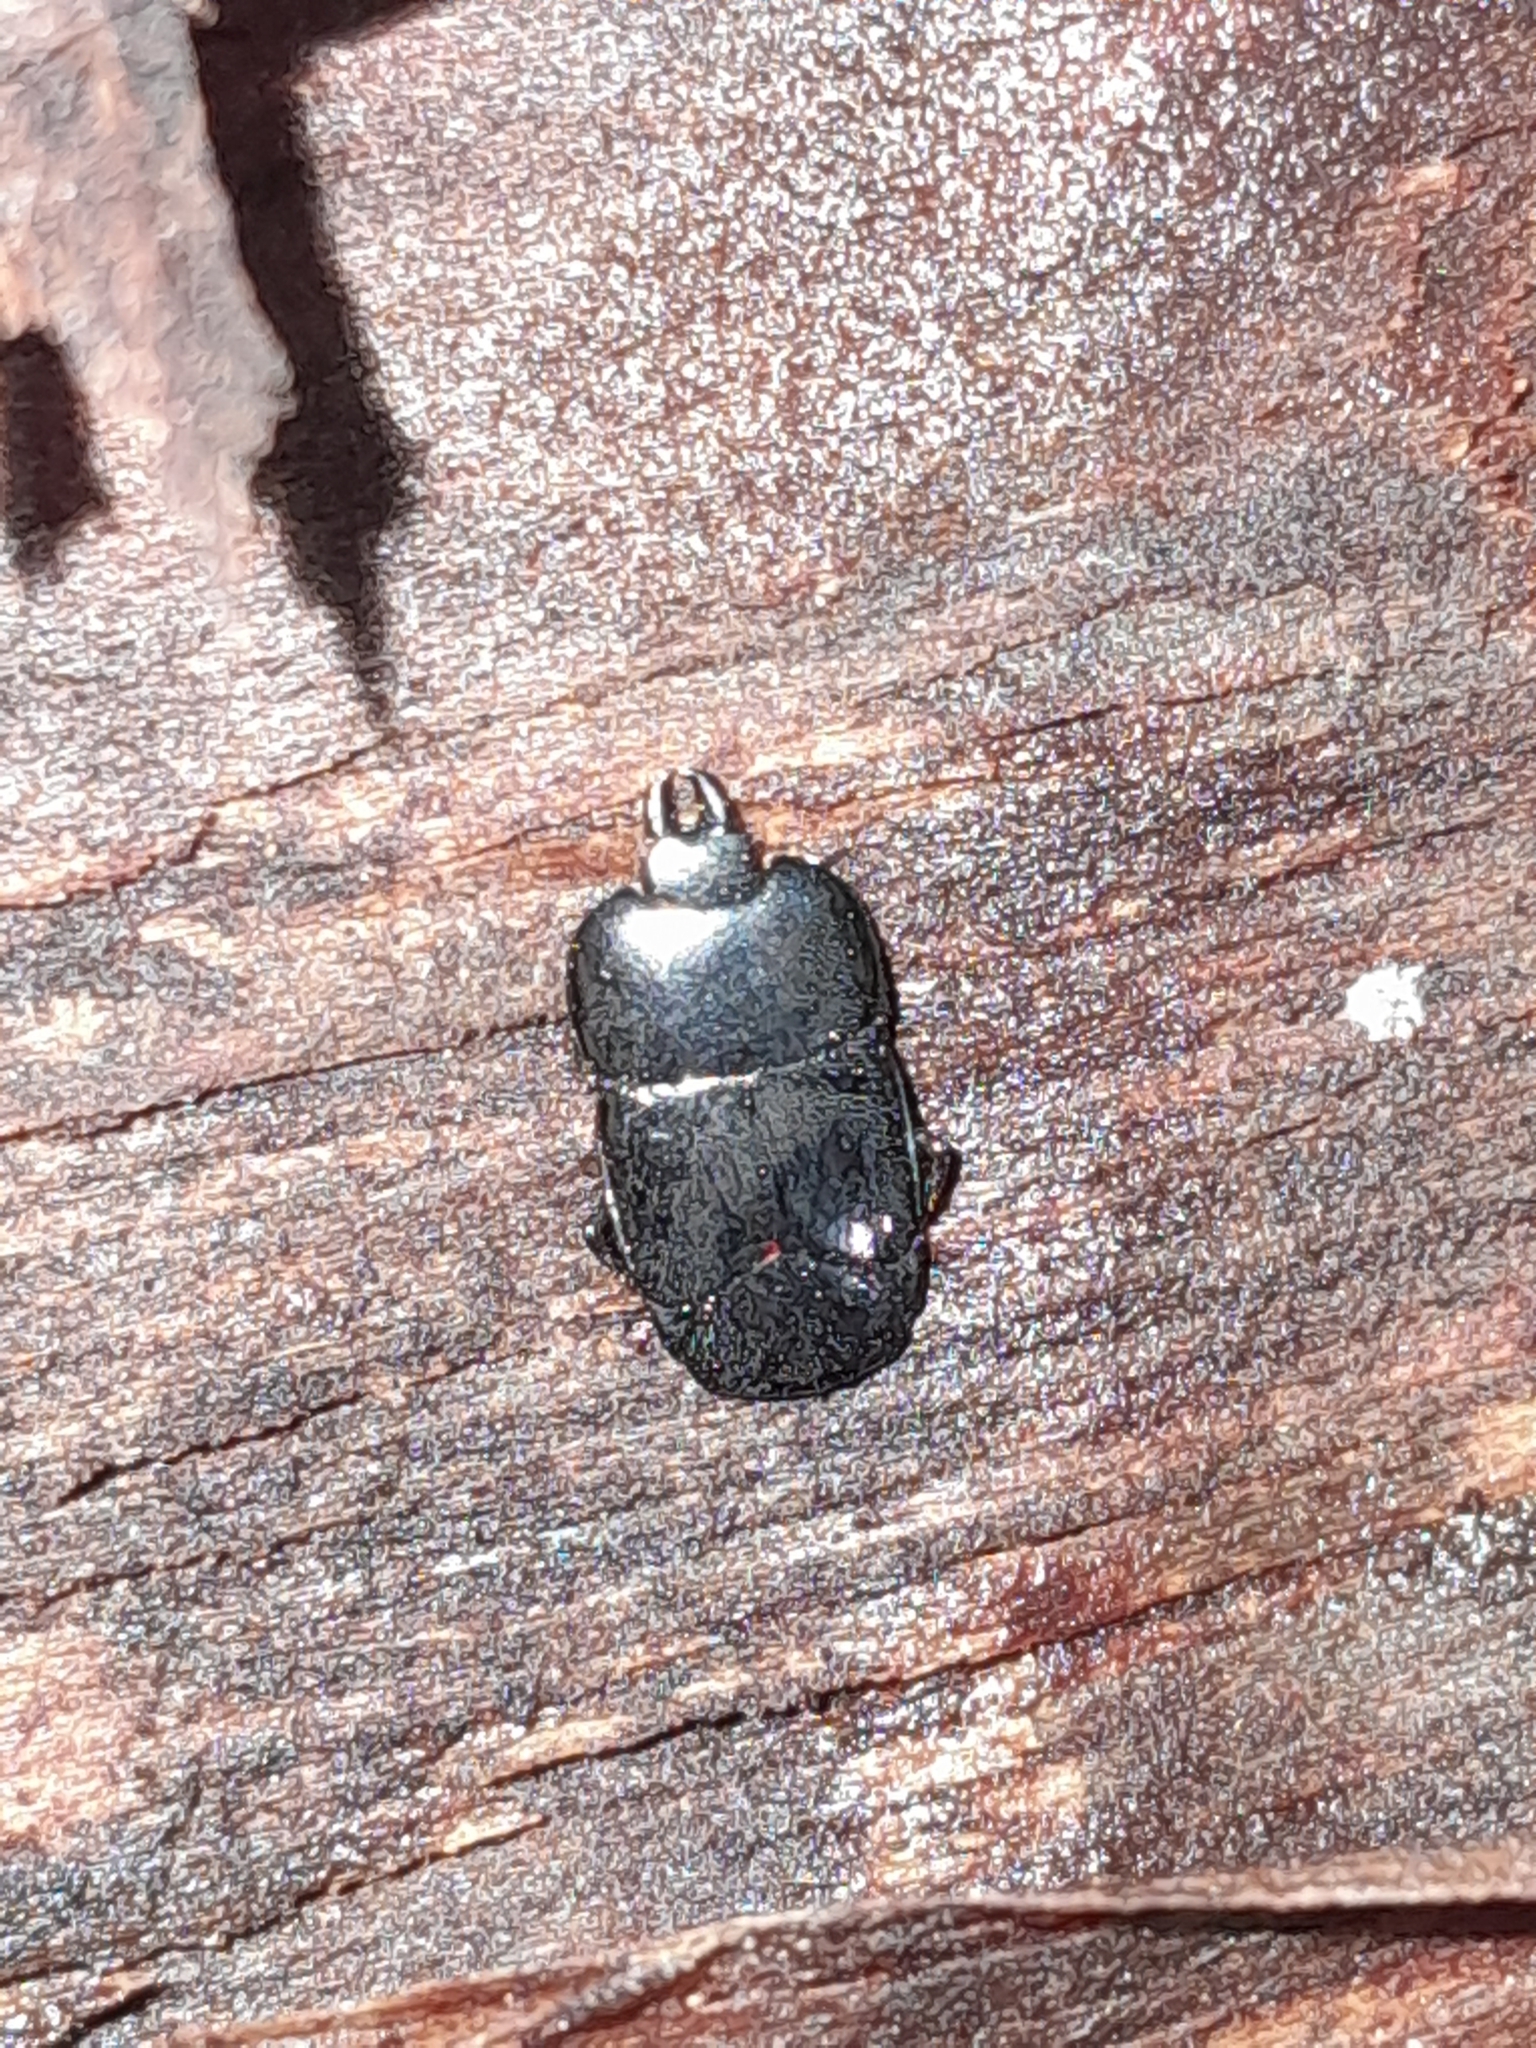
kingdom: Animalia
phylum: Arthropoda
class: Insecta
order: Coleoptera
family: Histeridae
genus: Hololepta
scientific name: Hololepta plana
